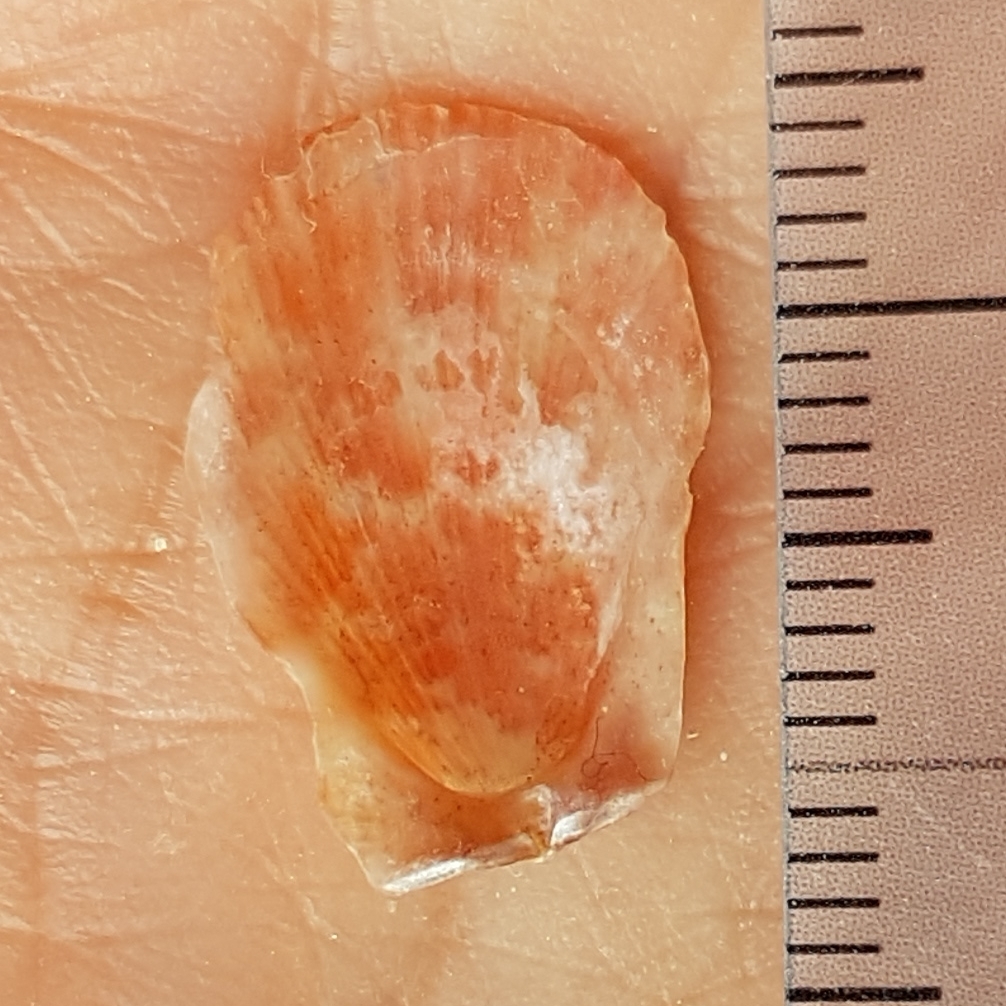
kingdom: Animalia
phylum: Mollusca
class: Bivalvia
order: Pectinida
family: Pectinidae
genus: Talochlamys
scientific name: Talochlamys pusio
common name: Hunchback scallop
